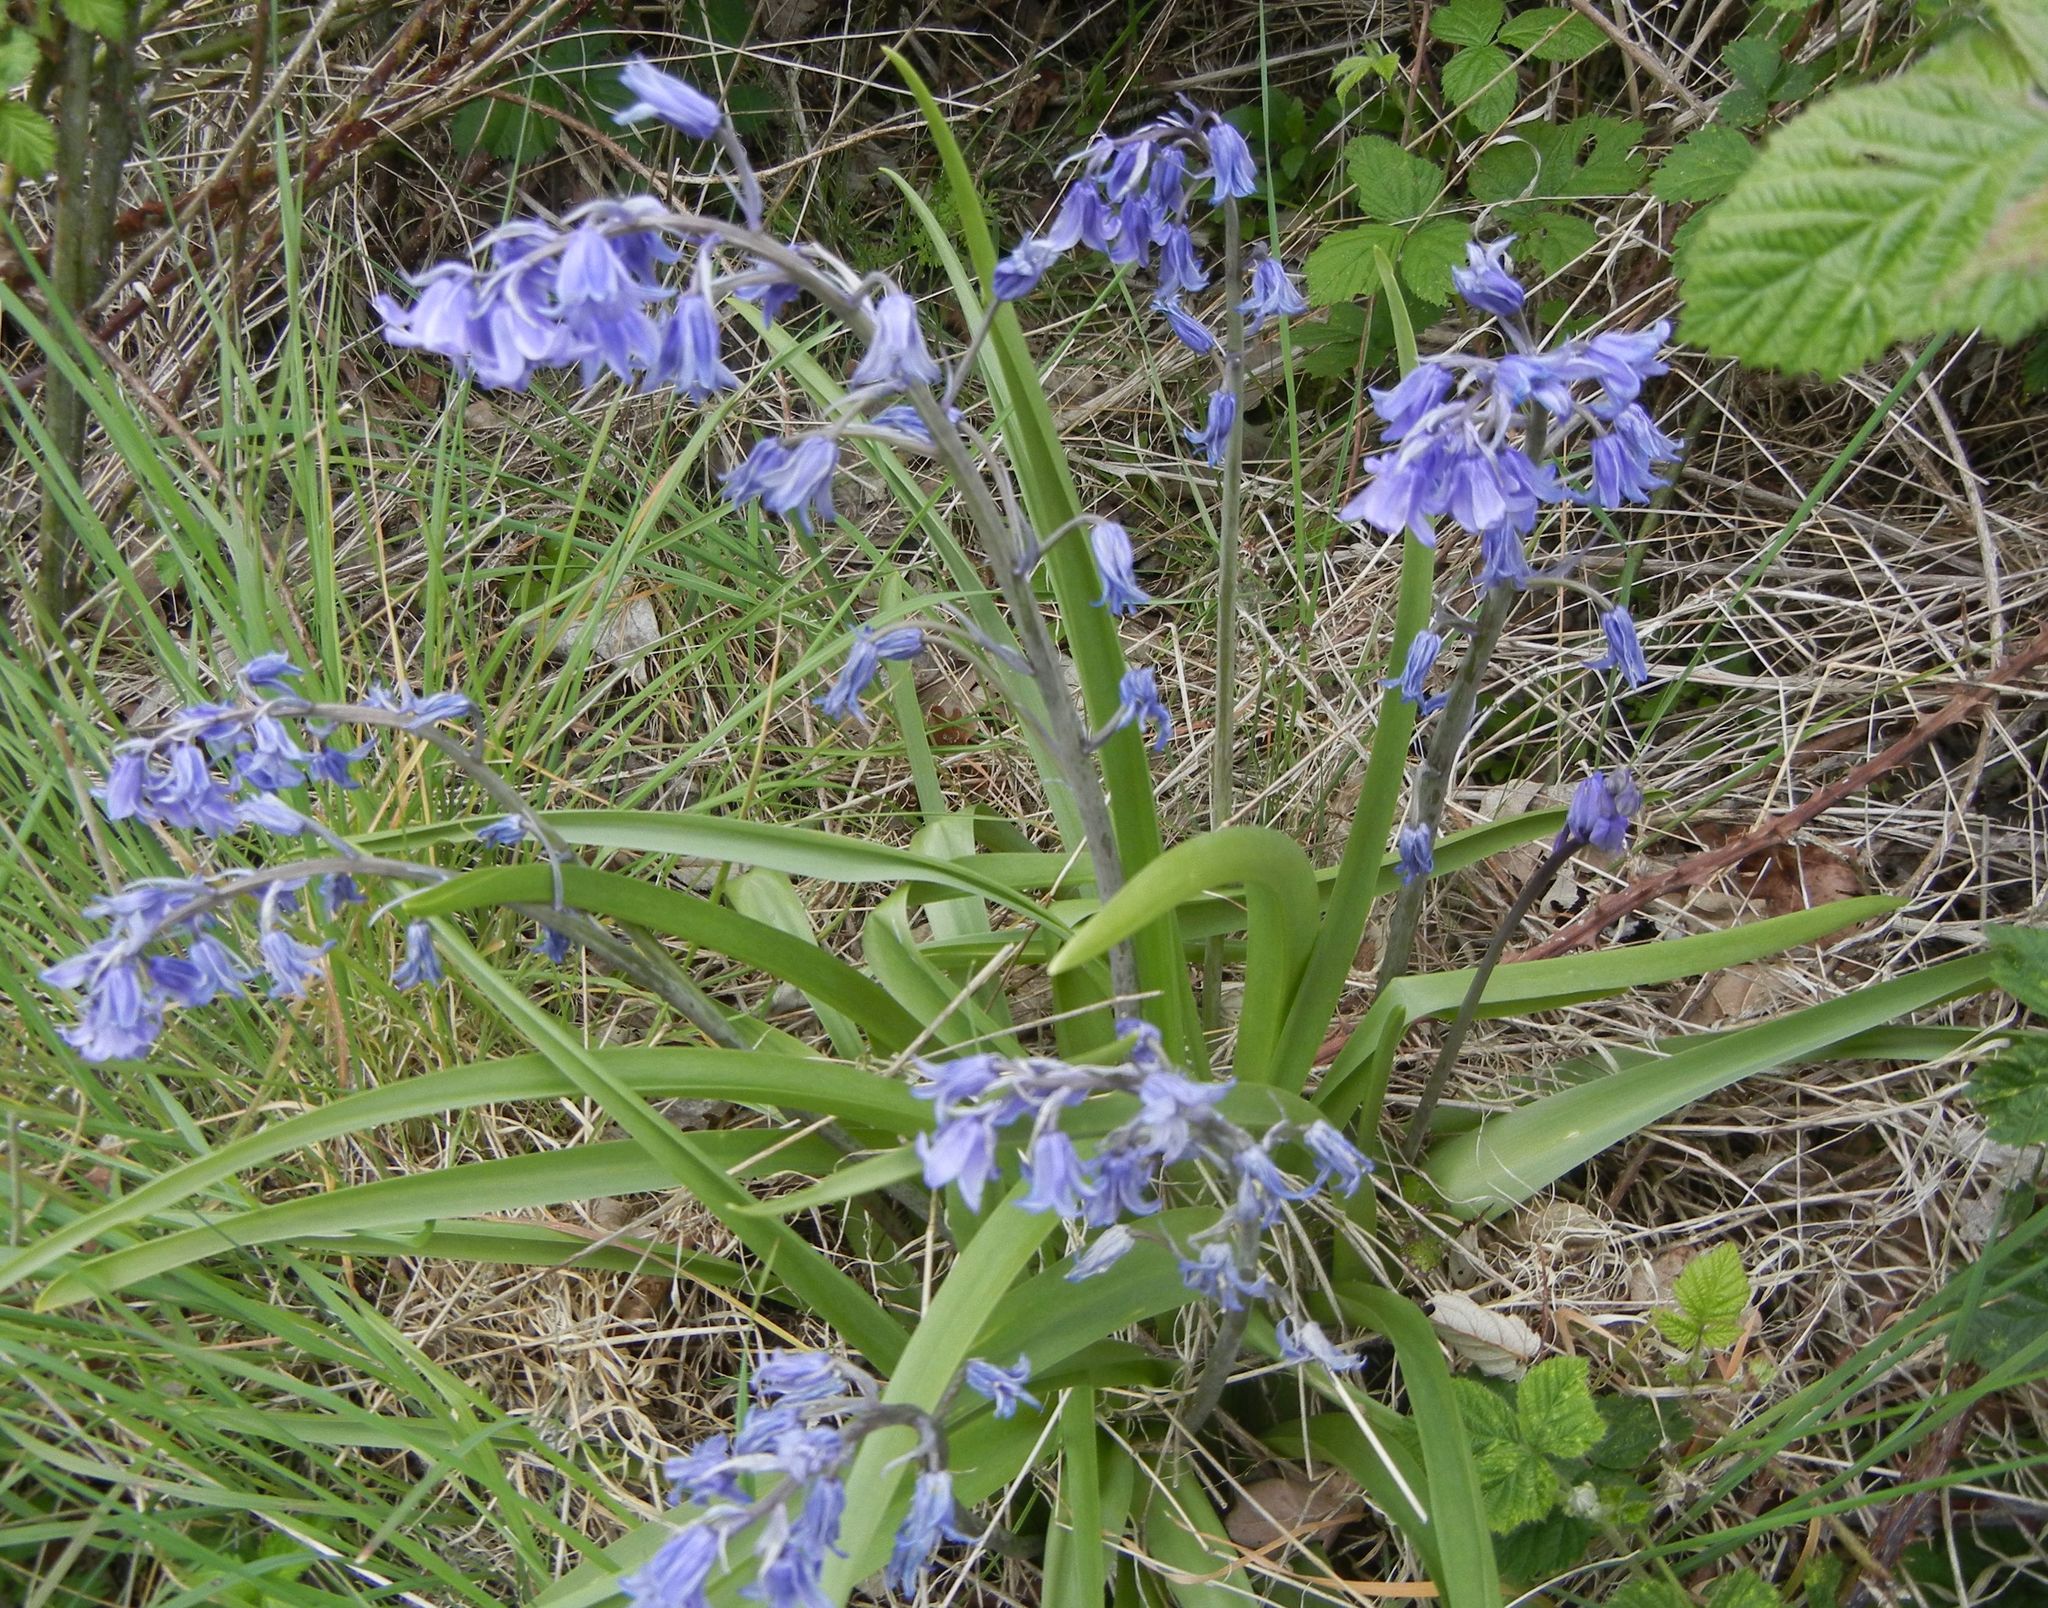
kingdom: Plantae
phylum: Tracheophyta
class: Liliopsida
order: Asparagales
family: Asparagaceae
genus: Hyacinthoides
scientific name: Hyacinthoides non-scripta
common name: Bluebell
